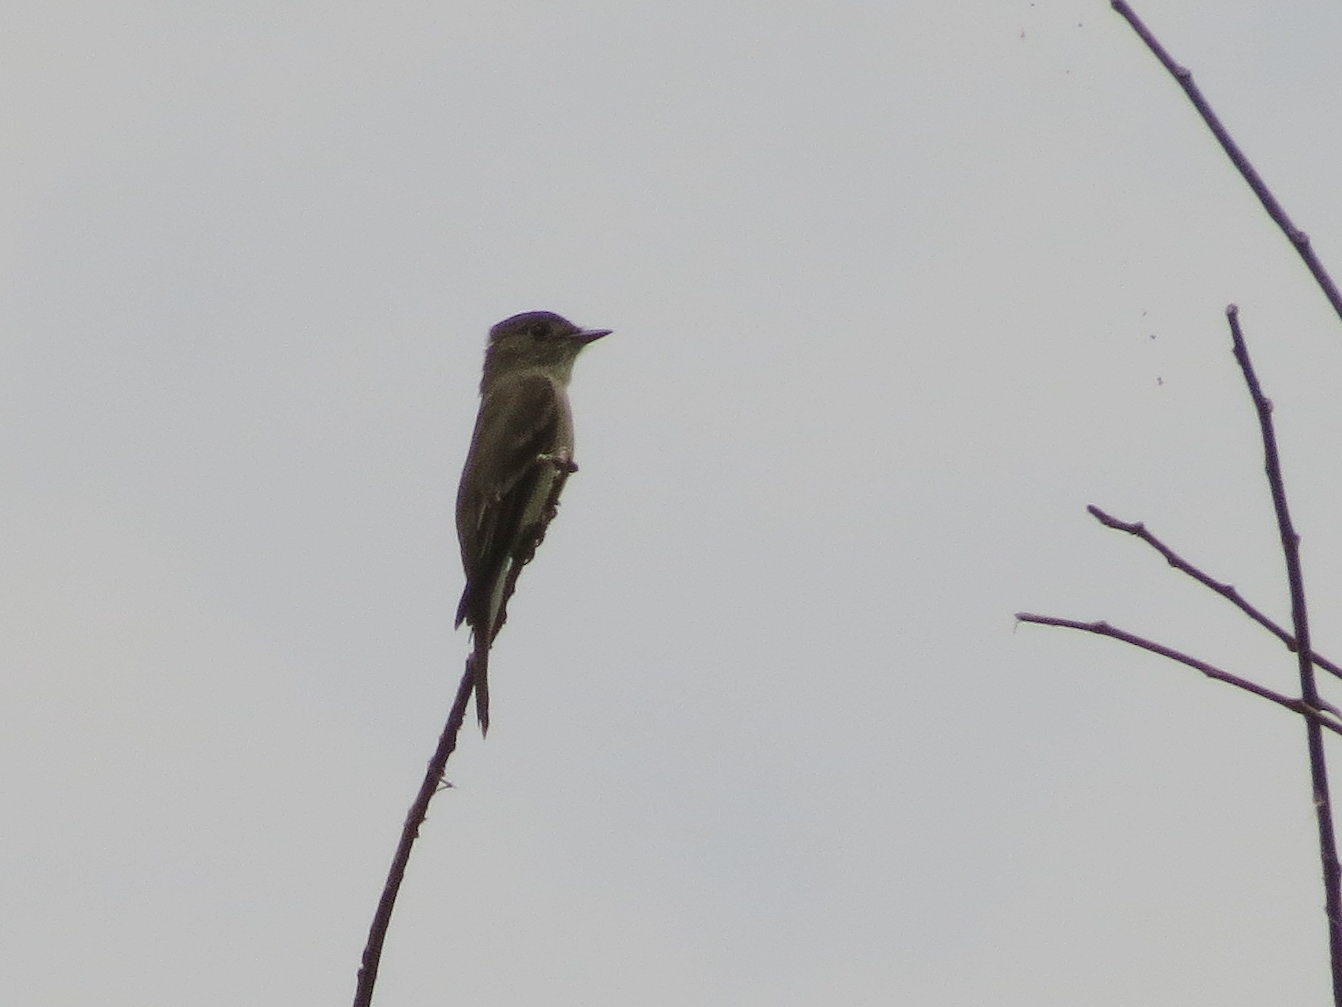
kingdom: Animalia
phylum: Chordata
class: Aves
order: Passeriformes
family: Tyrannidae
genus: Sayornis
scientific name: Sayornis phoebe
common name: Eastern phoebe
